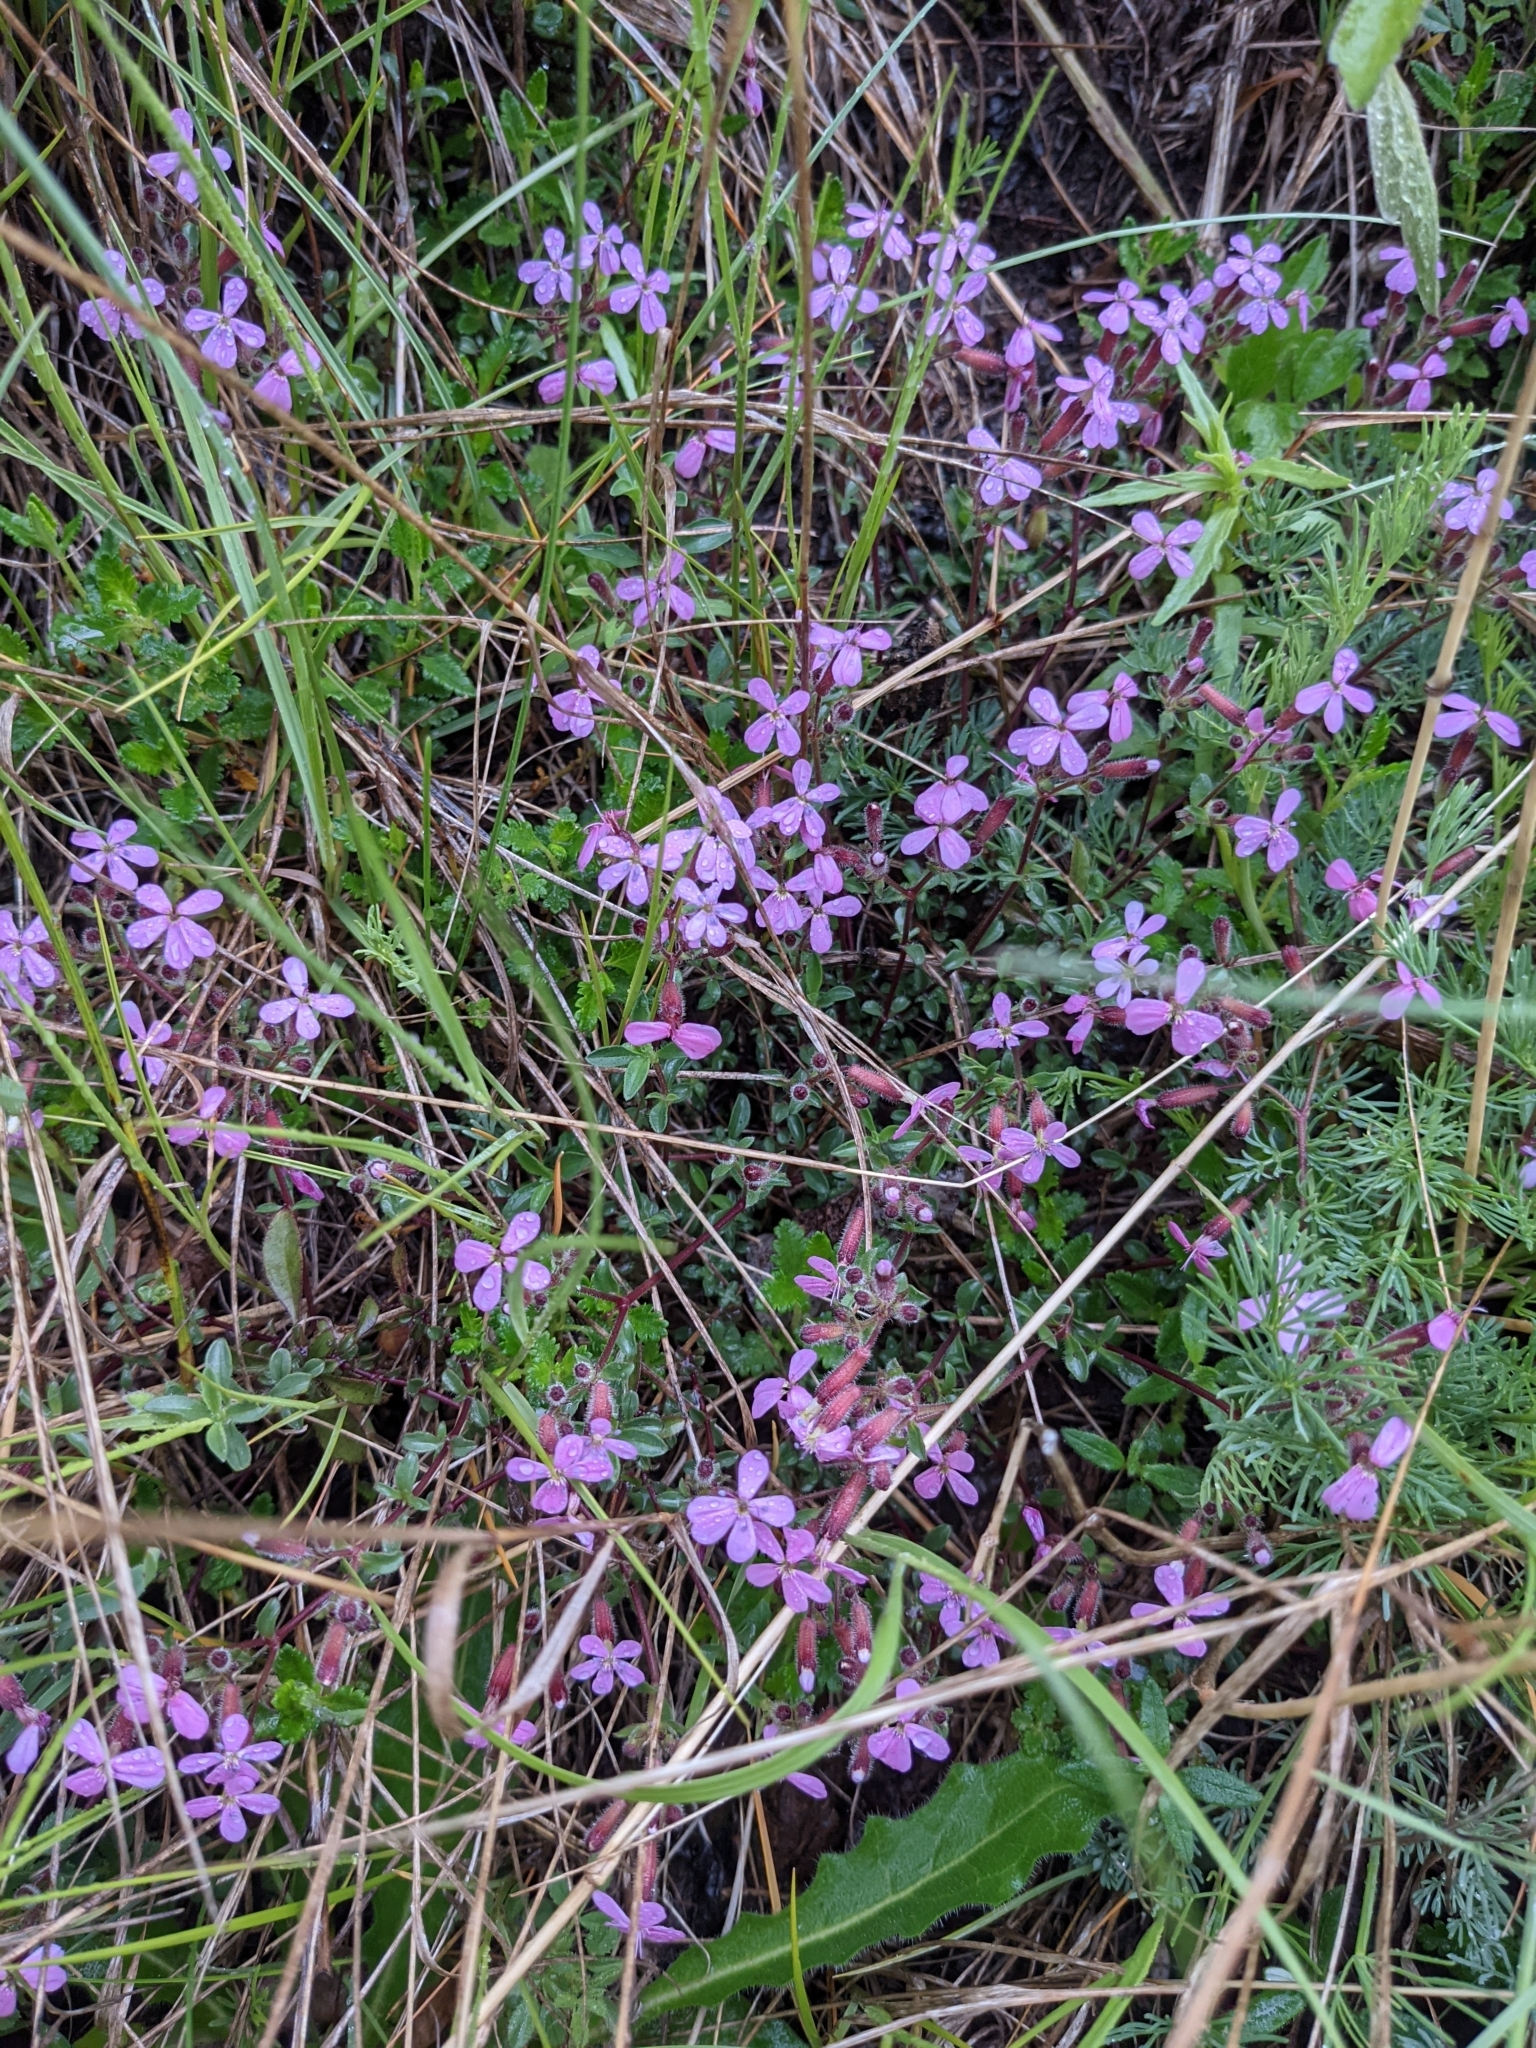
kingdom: Plantae
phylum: Tracheophyta
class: Magnoliopsida
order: Caryophyllales
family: Caryophyllaceae
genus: Saponaria
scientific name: Saponaria ocymoides
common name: Rock soapwort
